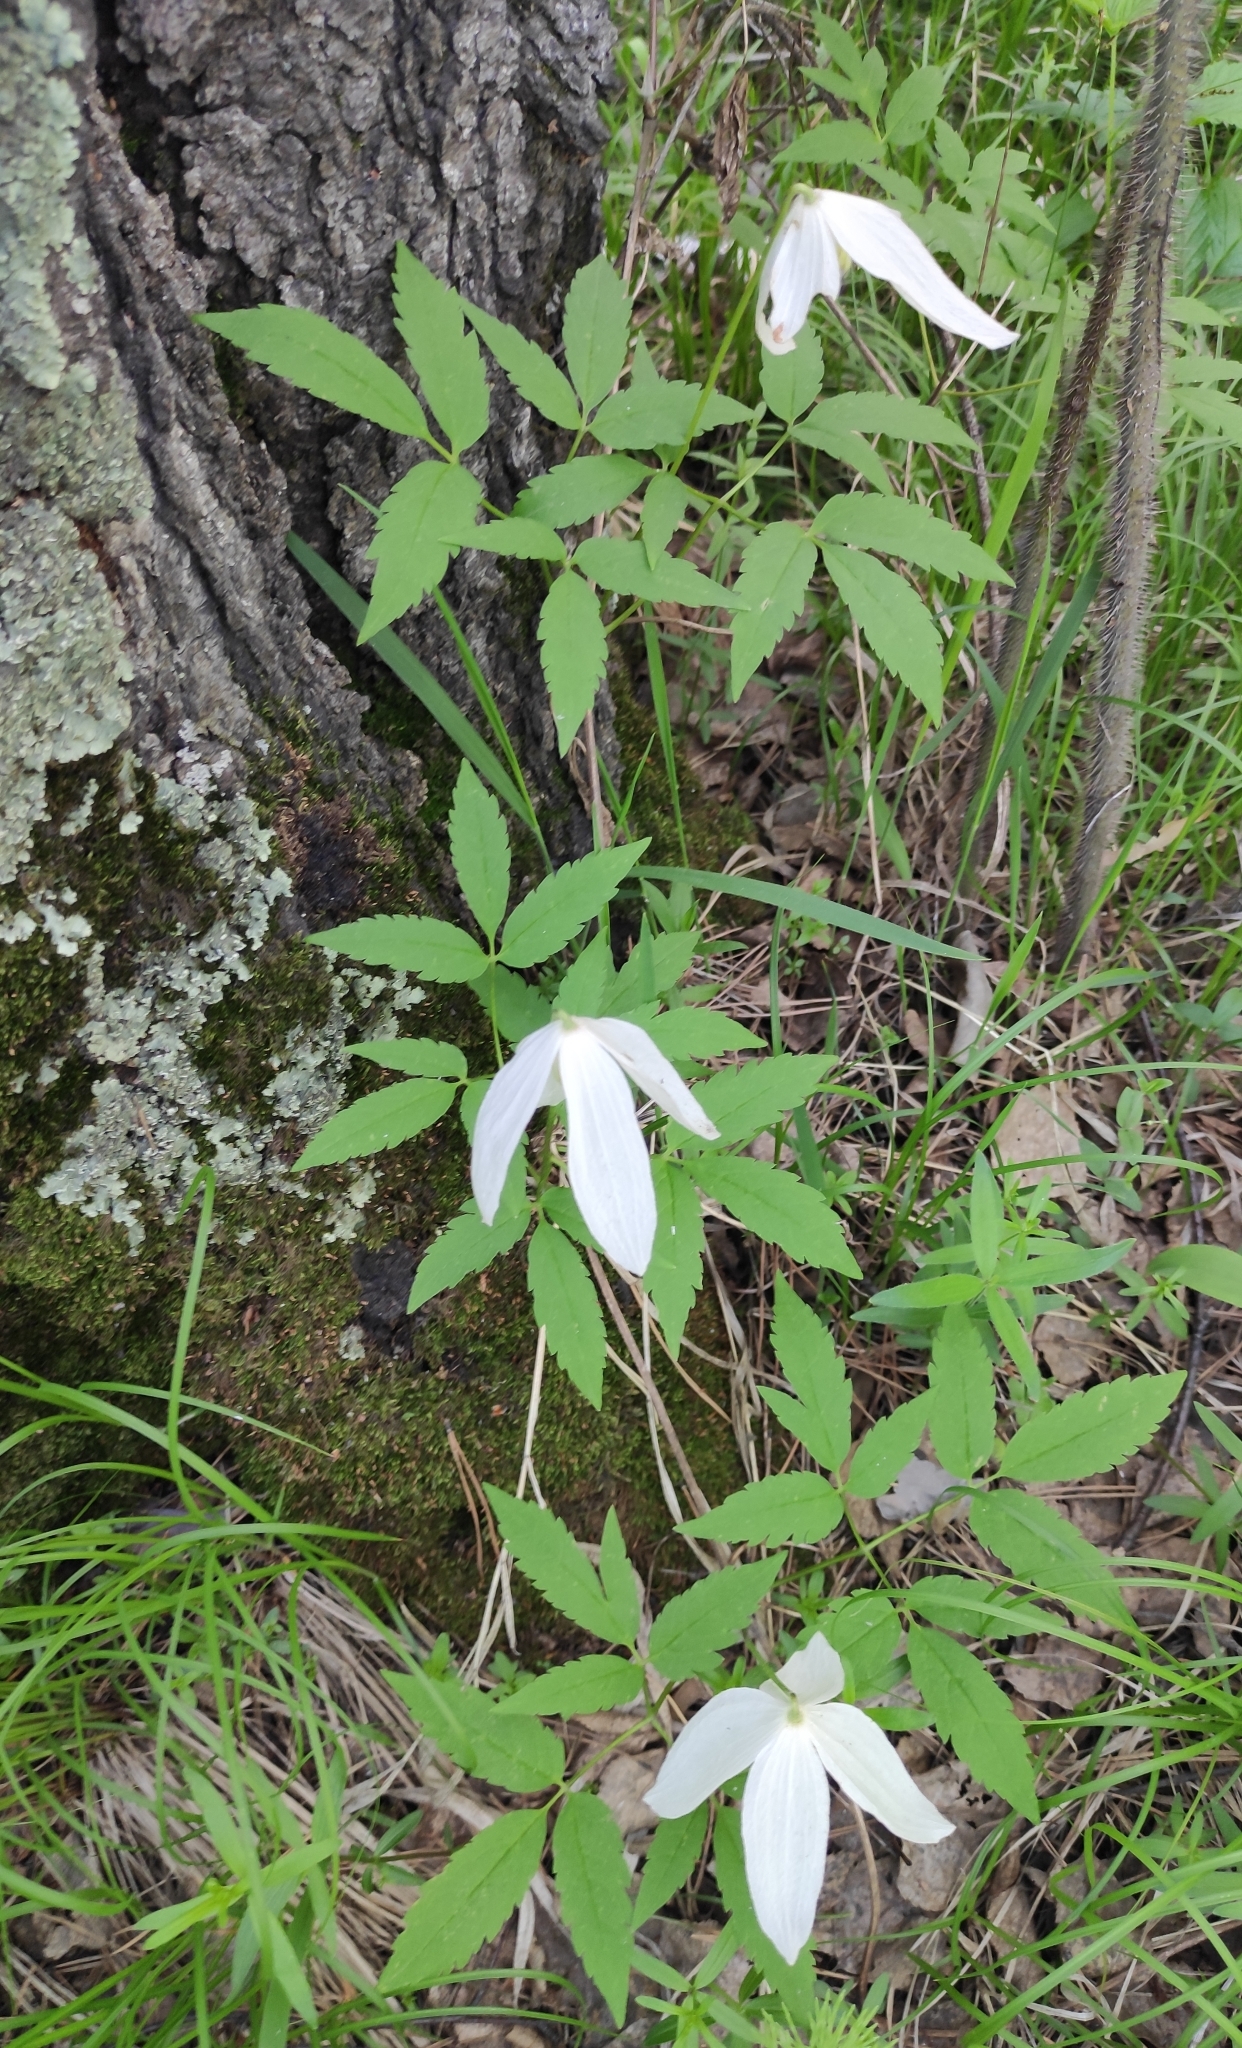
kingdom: Plantae
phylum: Tracheophyta
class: Magnoliopsida
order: Ranunculales
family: Ranunculaceae
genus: Clematis
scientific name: Clematis sibirica
